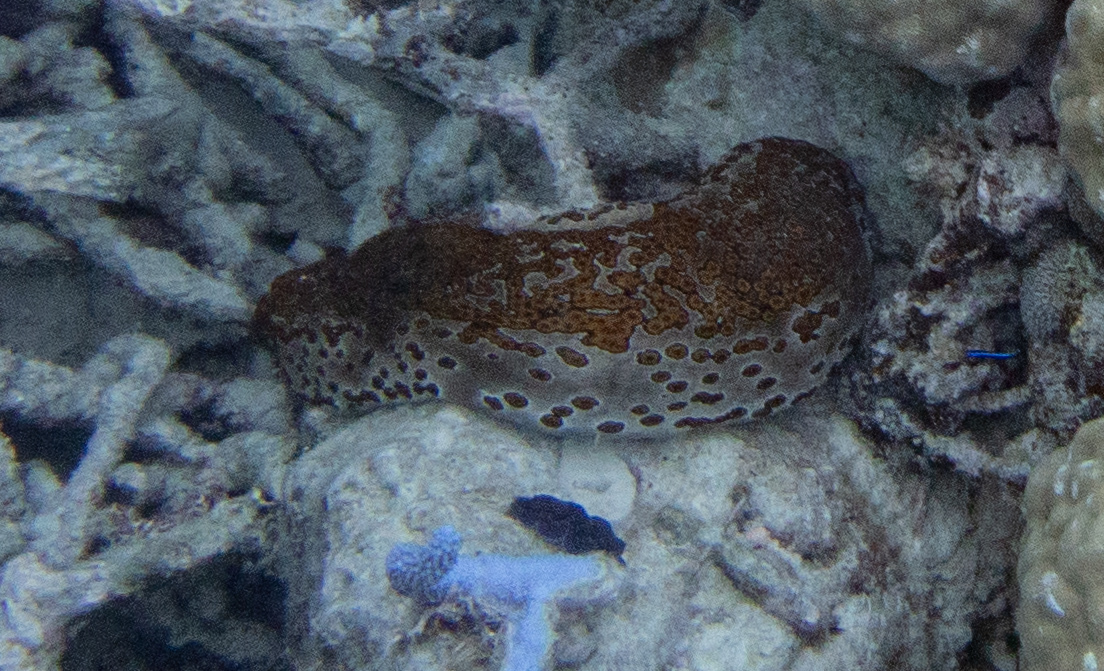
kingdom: Animalia
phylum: Echinodermata
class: Holothuroidea
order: Holothuriida
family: Holothuriidae
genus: Bohadschia
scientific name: Bohadschia argus
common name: Leopardfish
